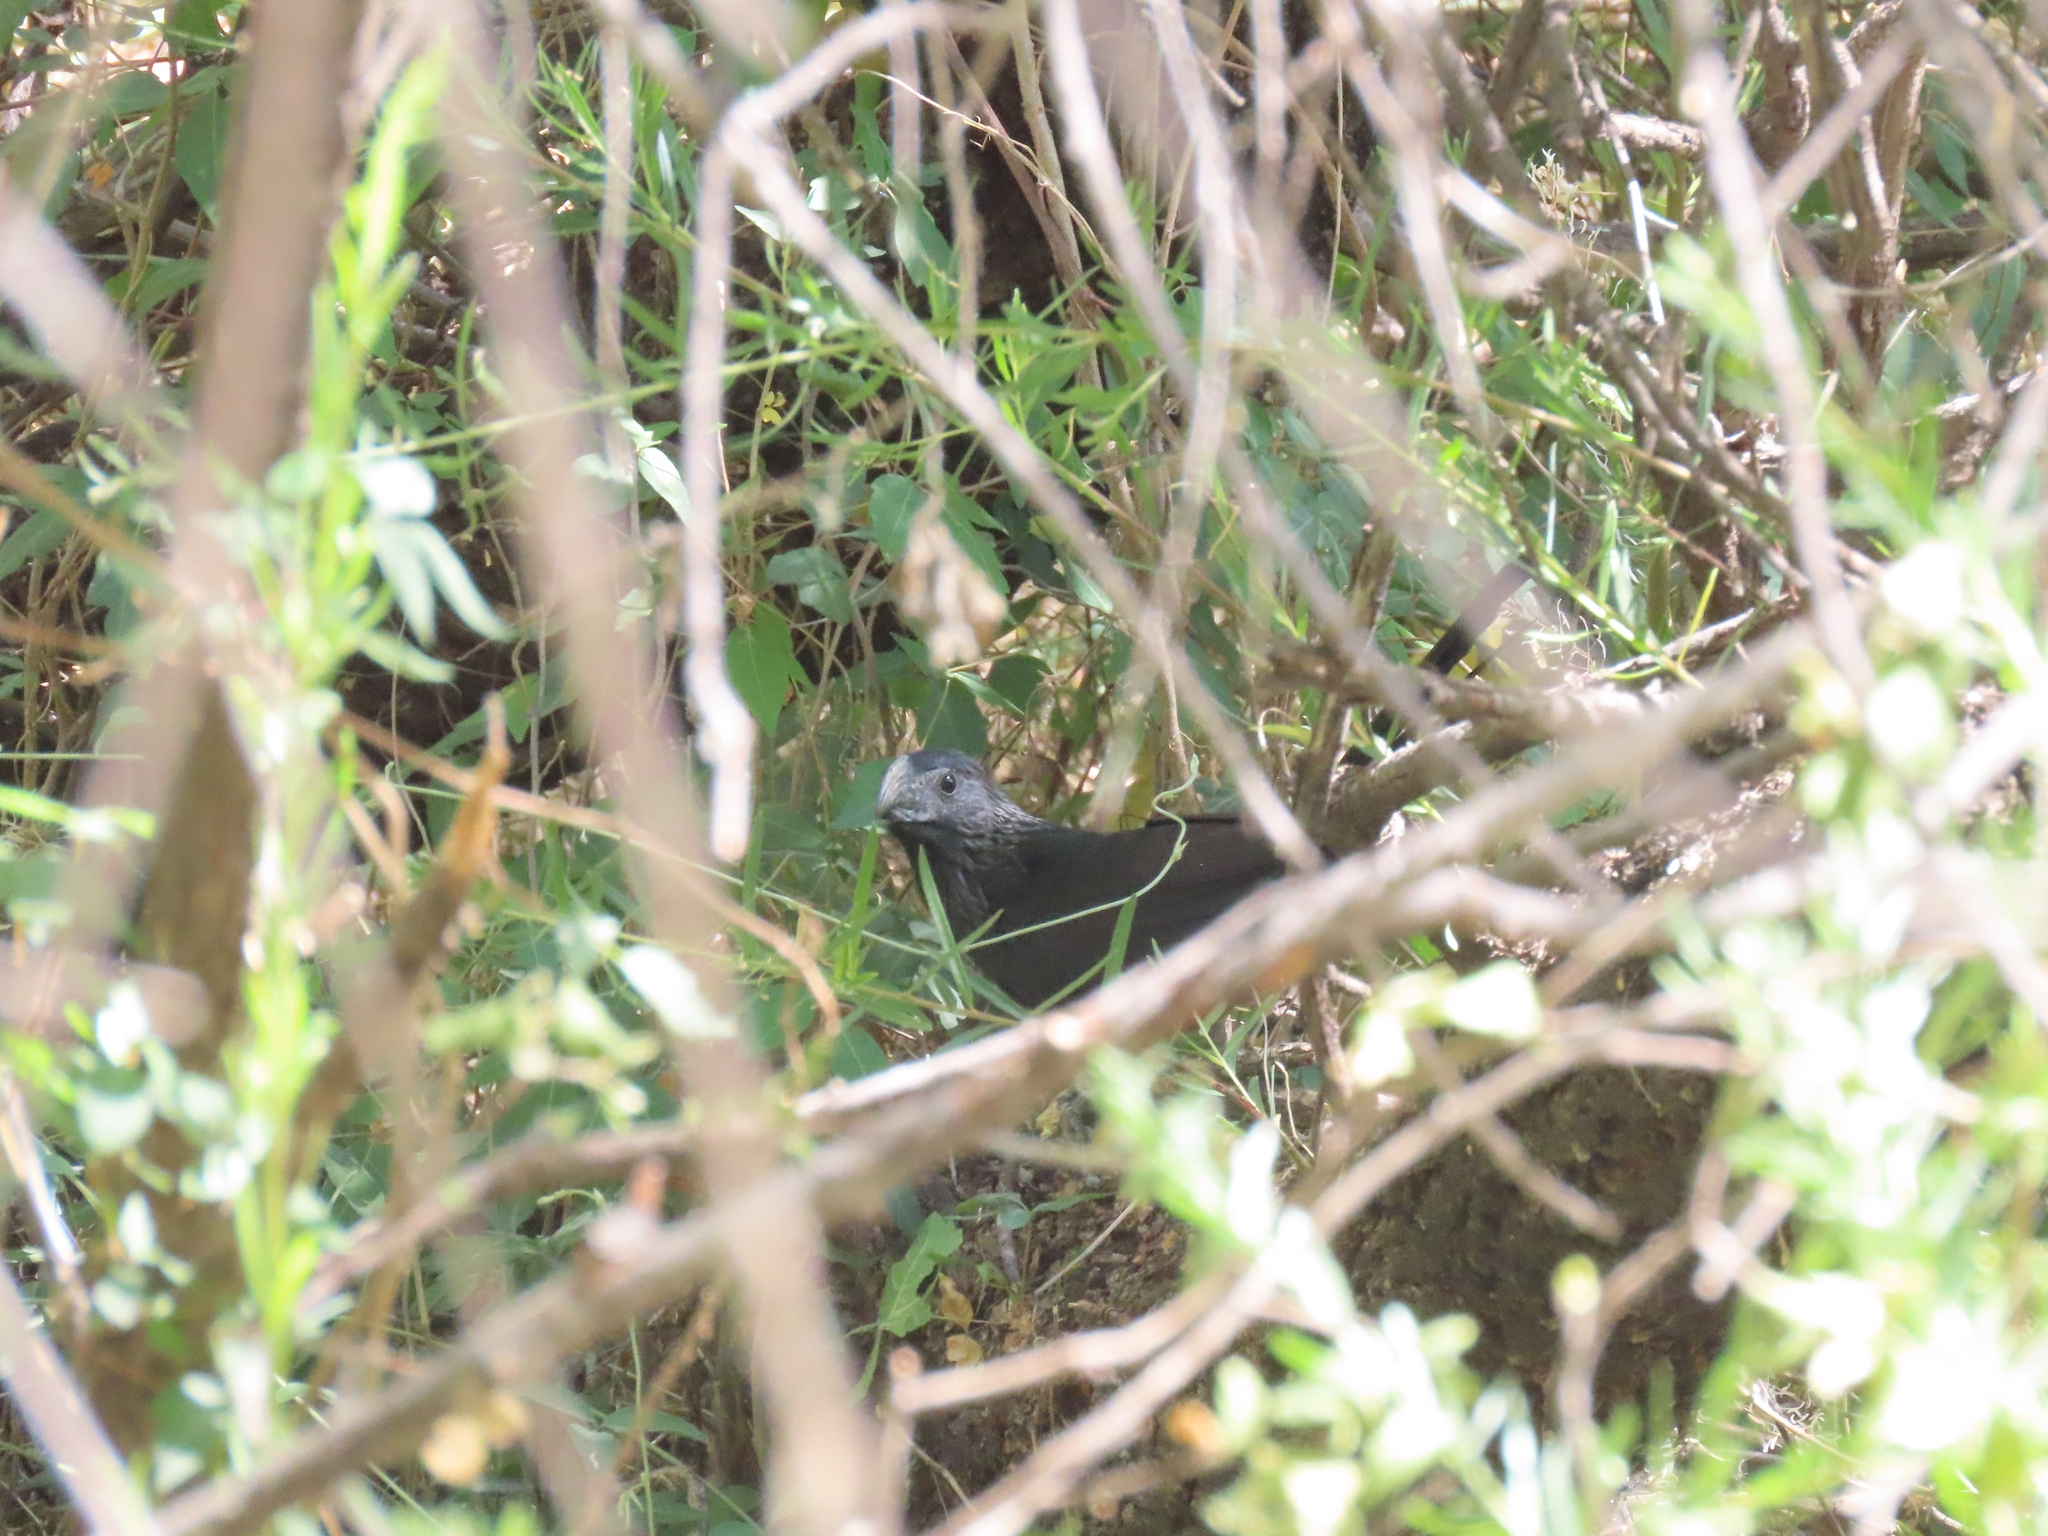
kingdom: Animalia
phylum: Chordata
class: Aves
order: Cuculiformes
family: Cuculidae
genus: Crotophaga
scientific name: Crotophaga sulcirostris
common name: Groove-billed ani
